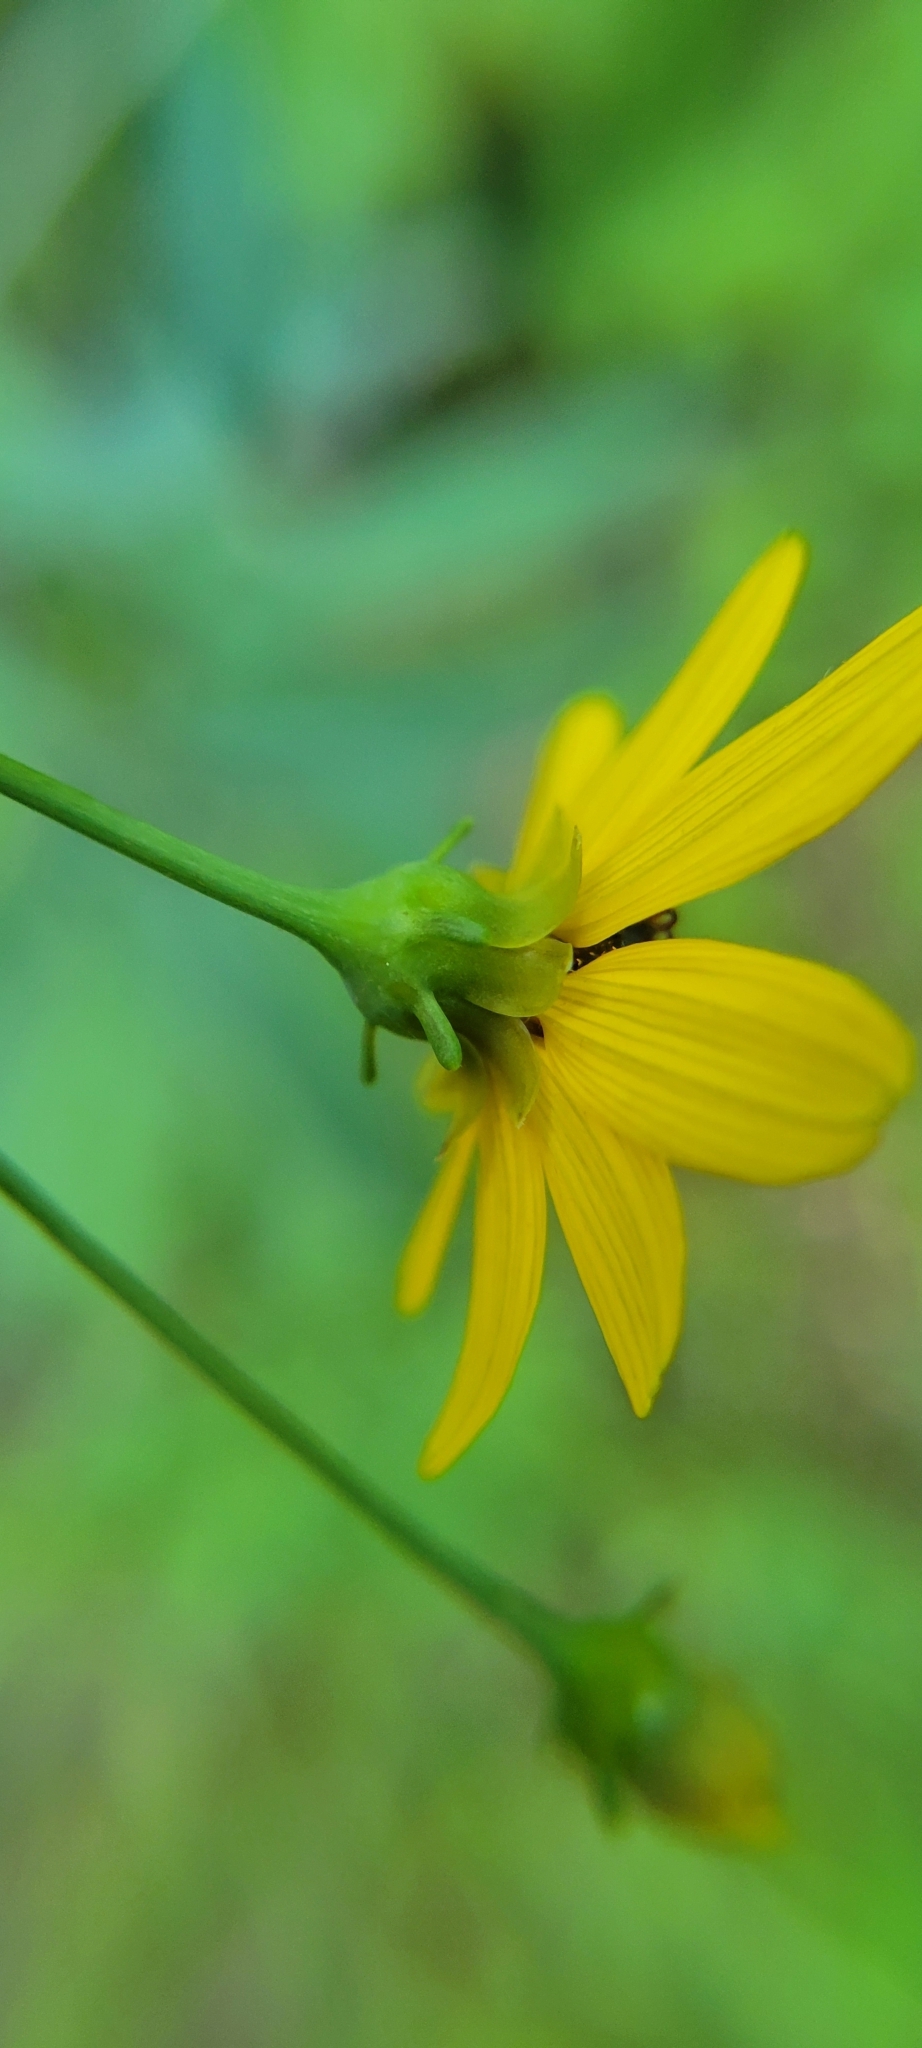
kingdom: Plantae
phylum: Tracheophyta
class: Magnoliopsida
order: Asterales
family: Asteraceae
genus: Coreopsis
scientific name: Coreopsis tripteris
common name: Tall coreopsis
